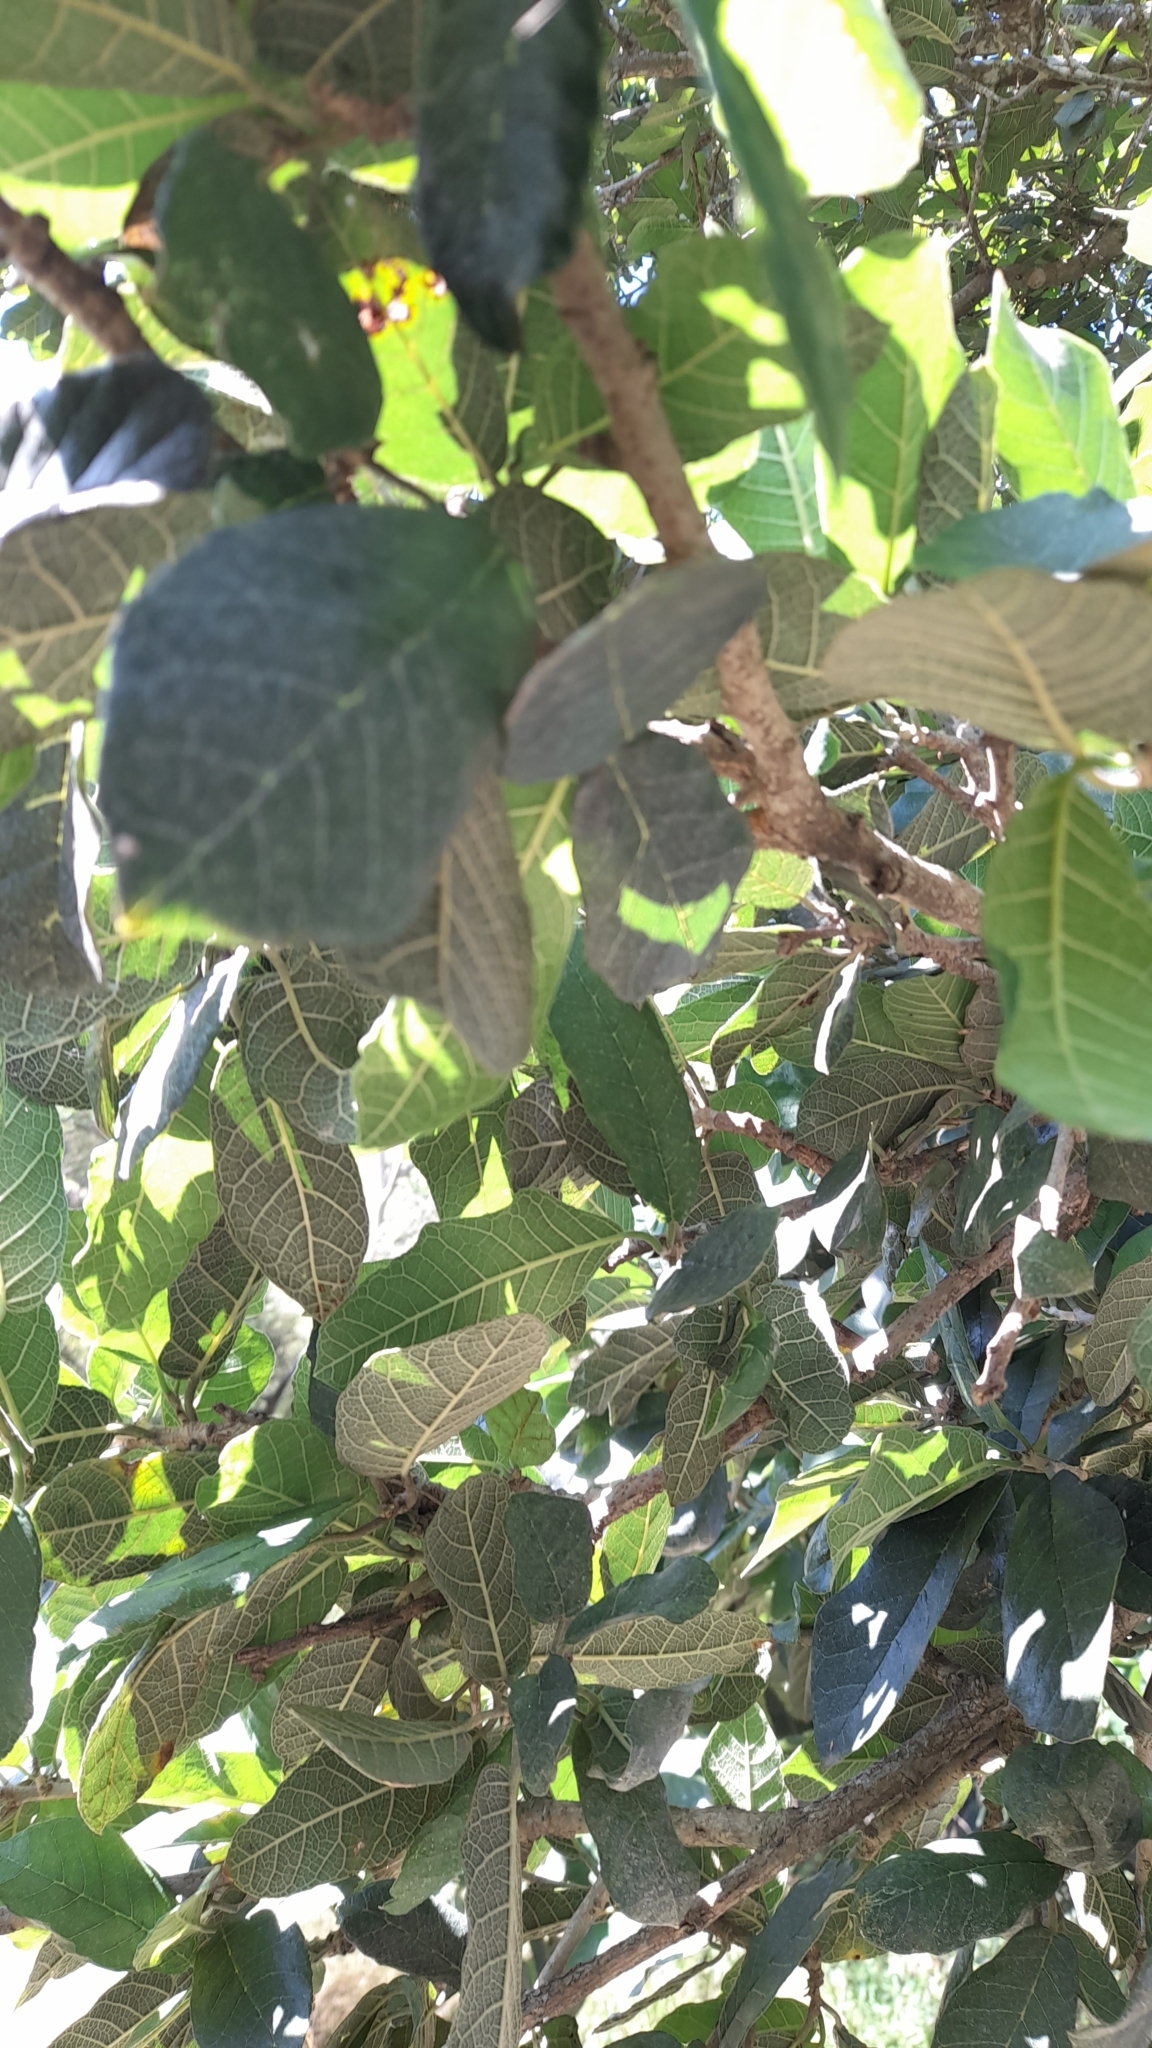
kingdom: Plantae
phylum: Tracheophyta
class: Magnoliopsida
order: Rosales
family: Moraceae
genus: Sorocea
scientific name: Sorocea sprucei
